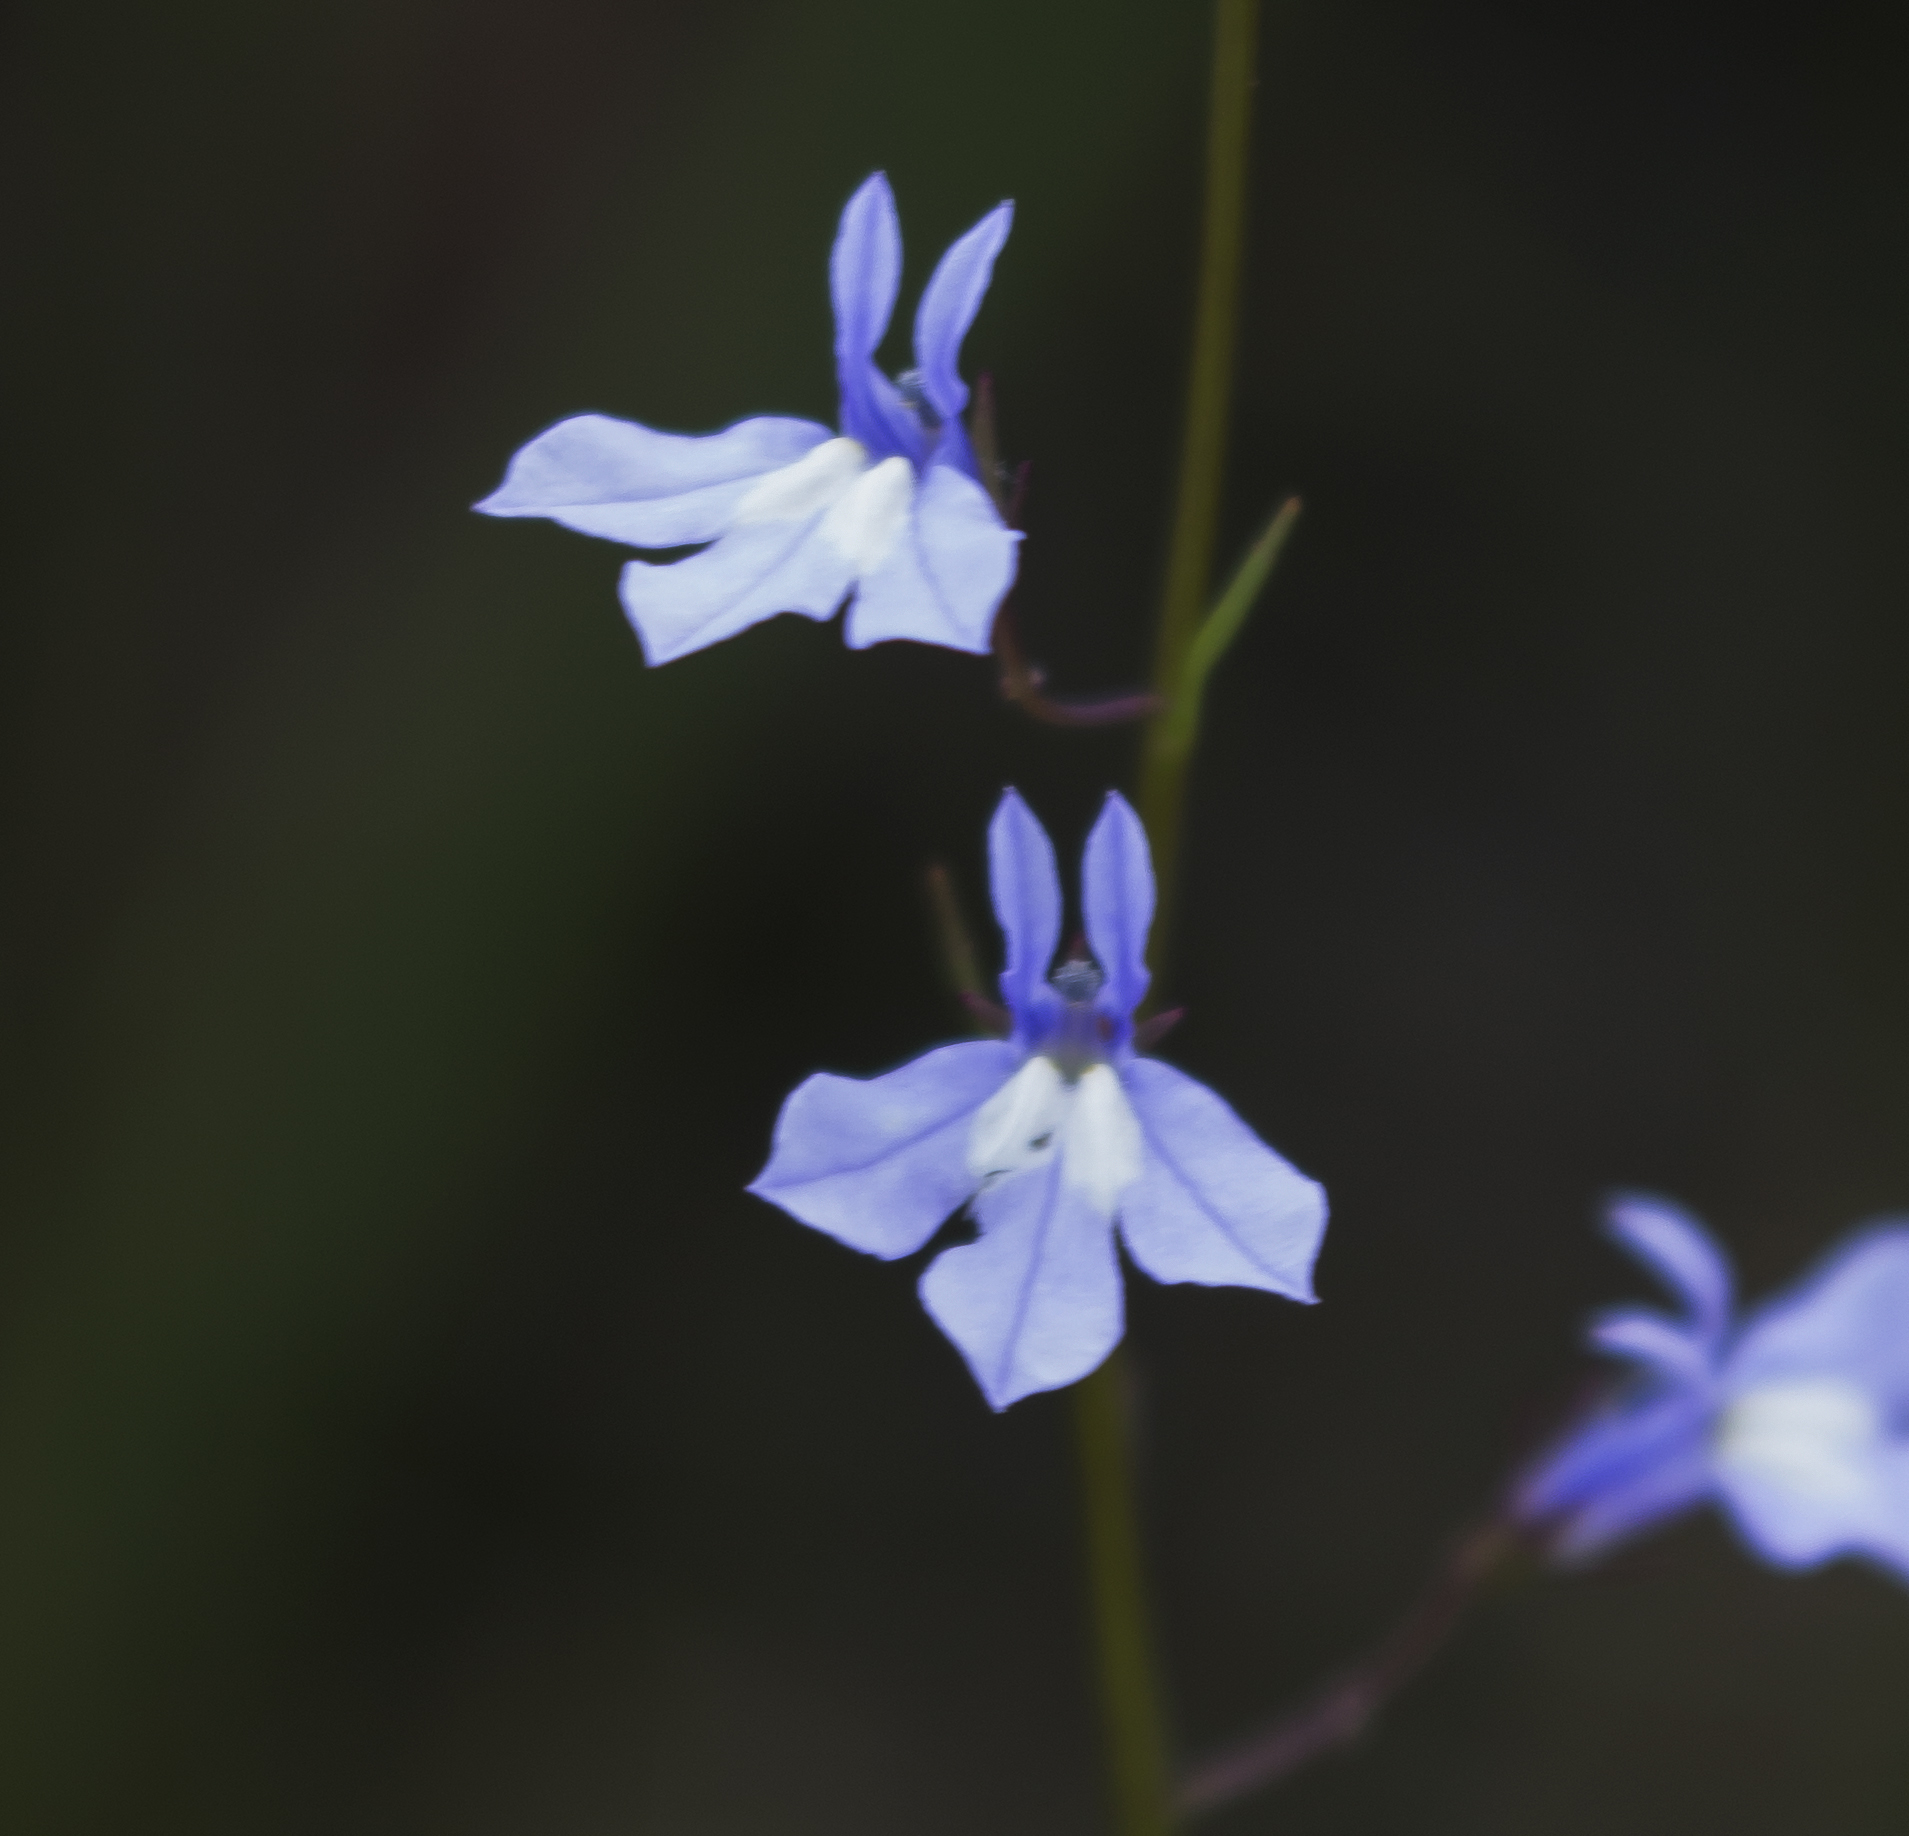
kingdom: Plantae
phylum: Tracheophyta
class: Magnoliopsida
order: Asterales
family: Campanulaceae
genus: Lobelia
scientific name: Lobelia kalmii
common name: Kalm's lobelia
